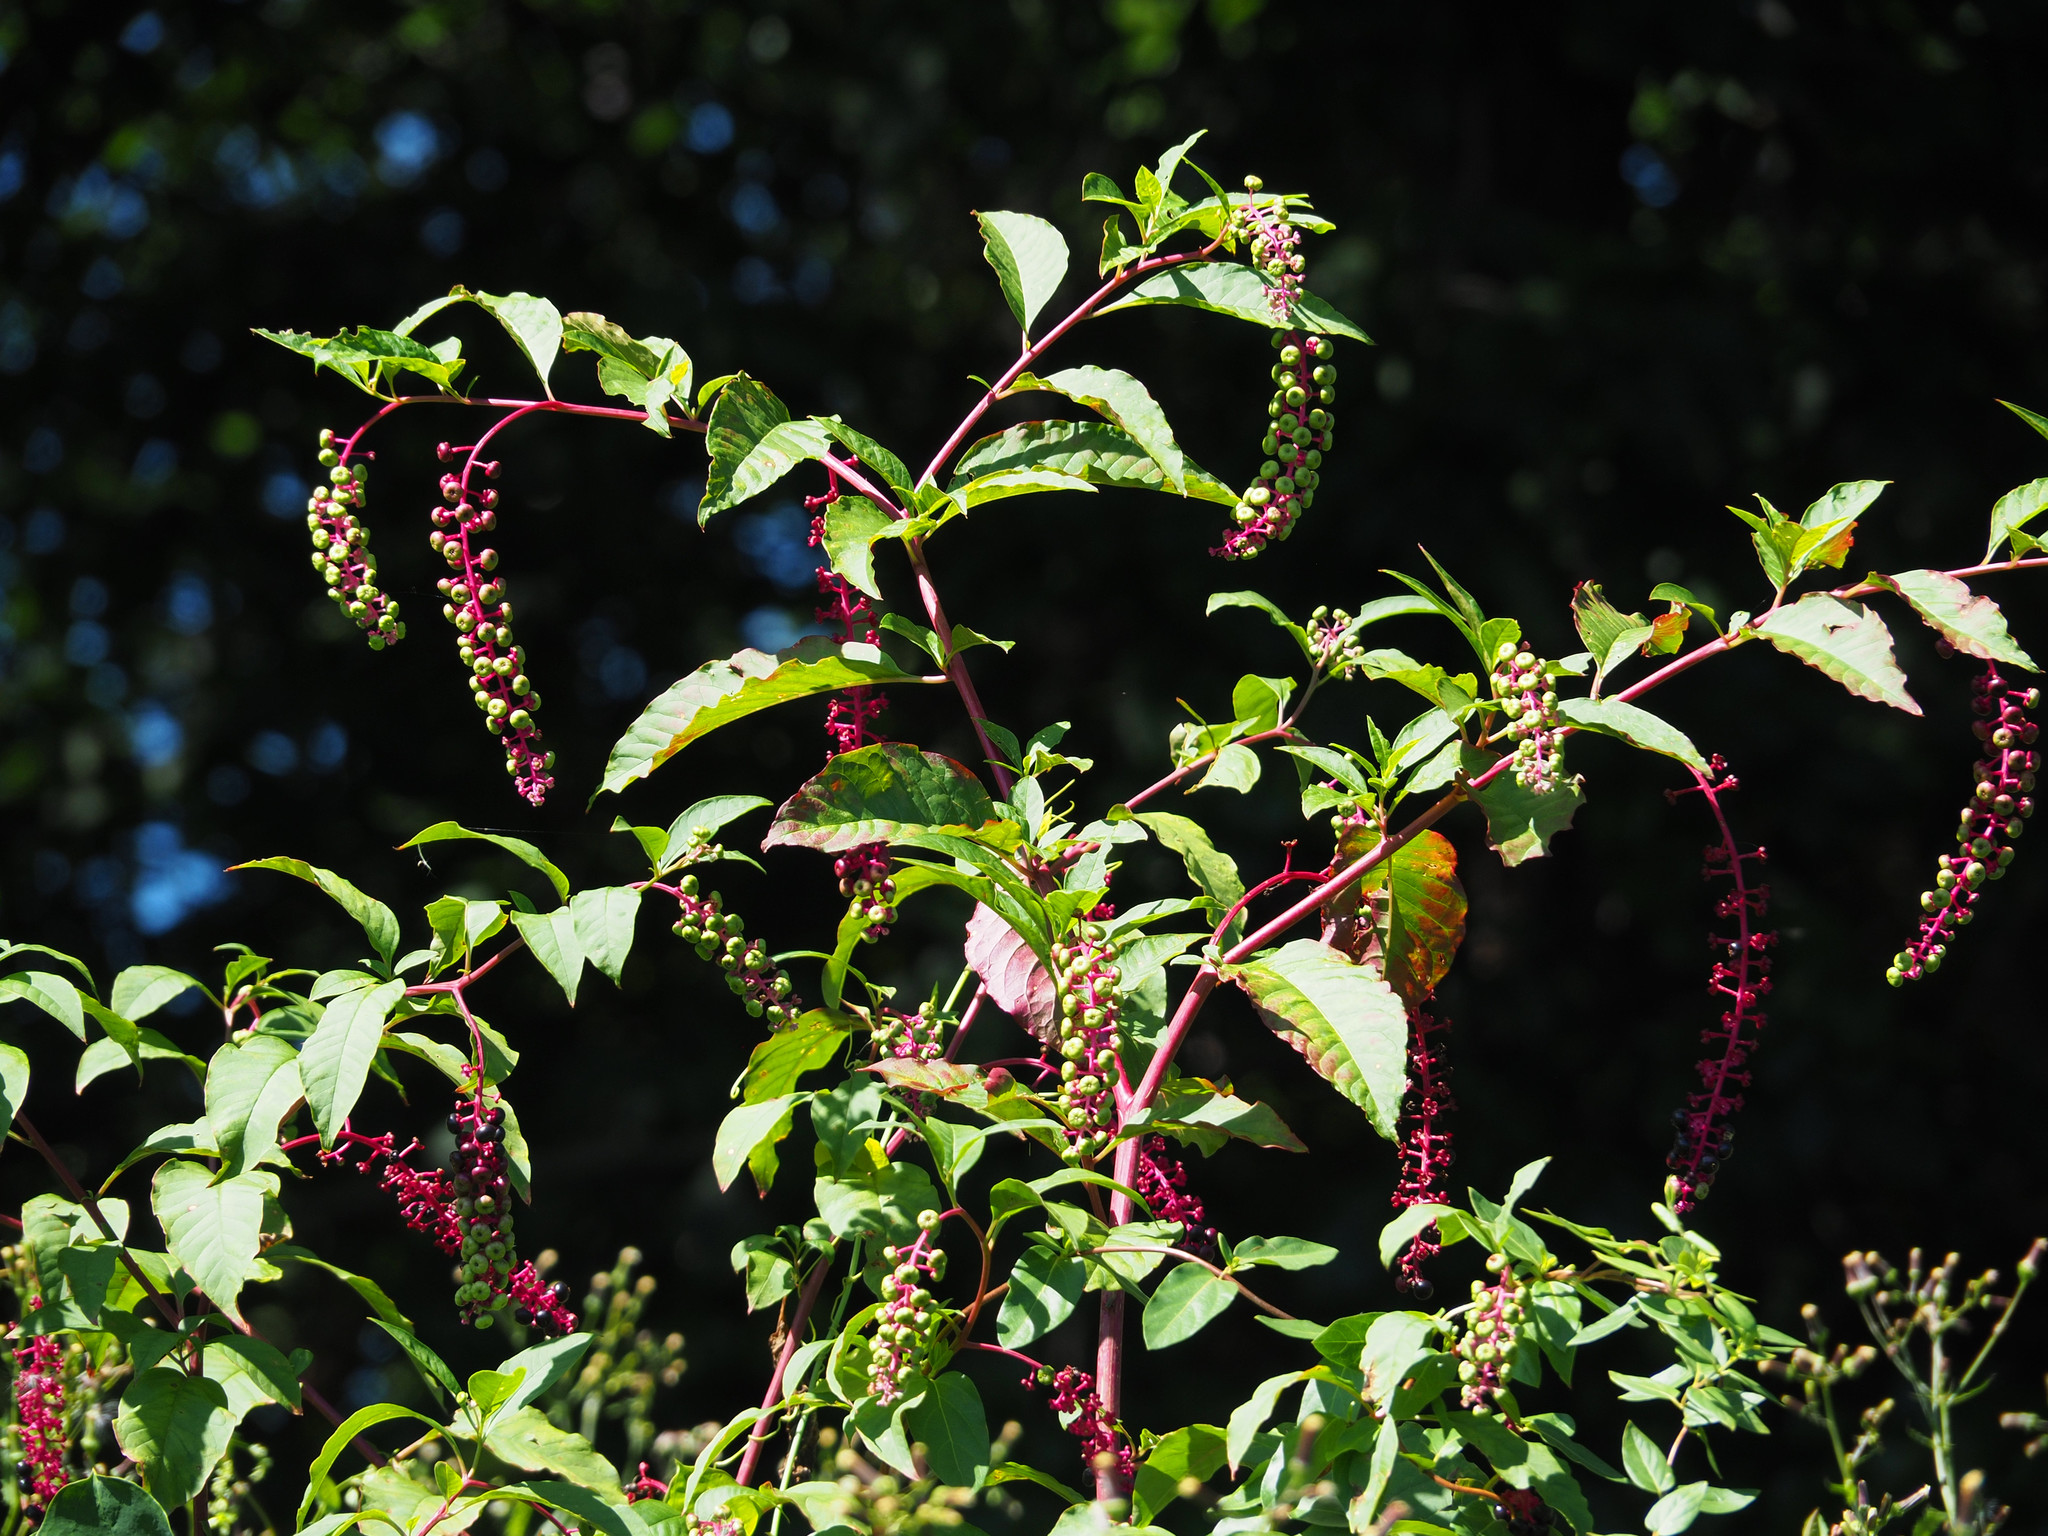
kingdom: Plantae
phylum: Tracheophyta
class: Magnoliopsida
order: Caryophyllales
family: Phytolaccaceae
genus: Phytolacca
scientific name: Phytolacca americana
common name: American pokeweed
